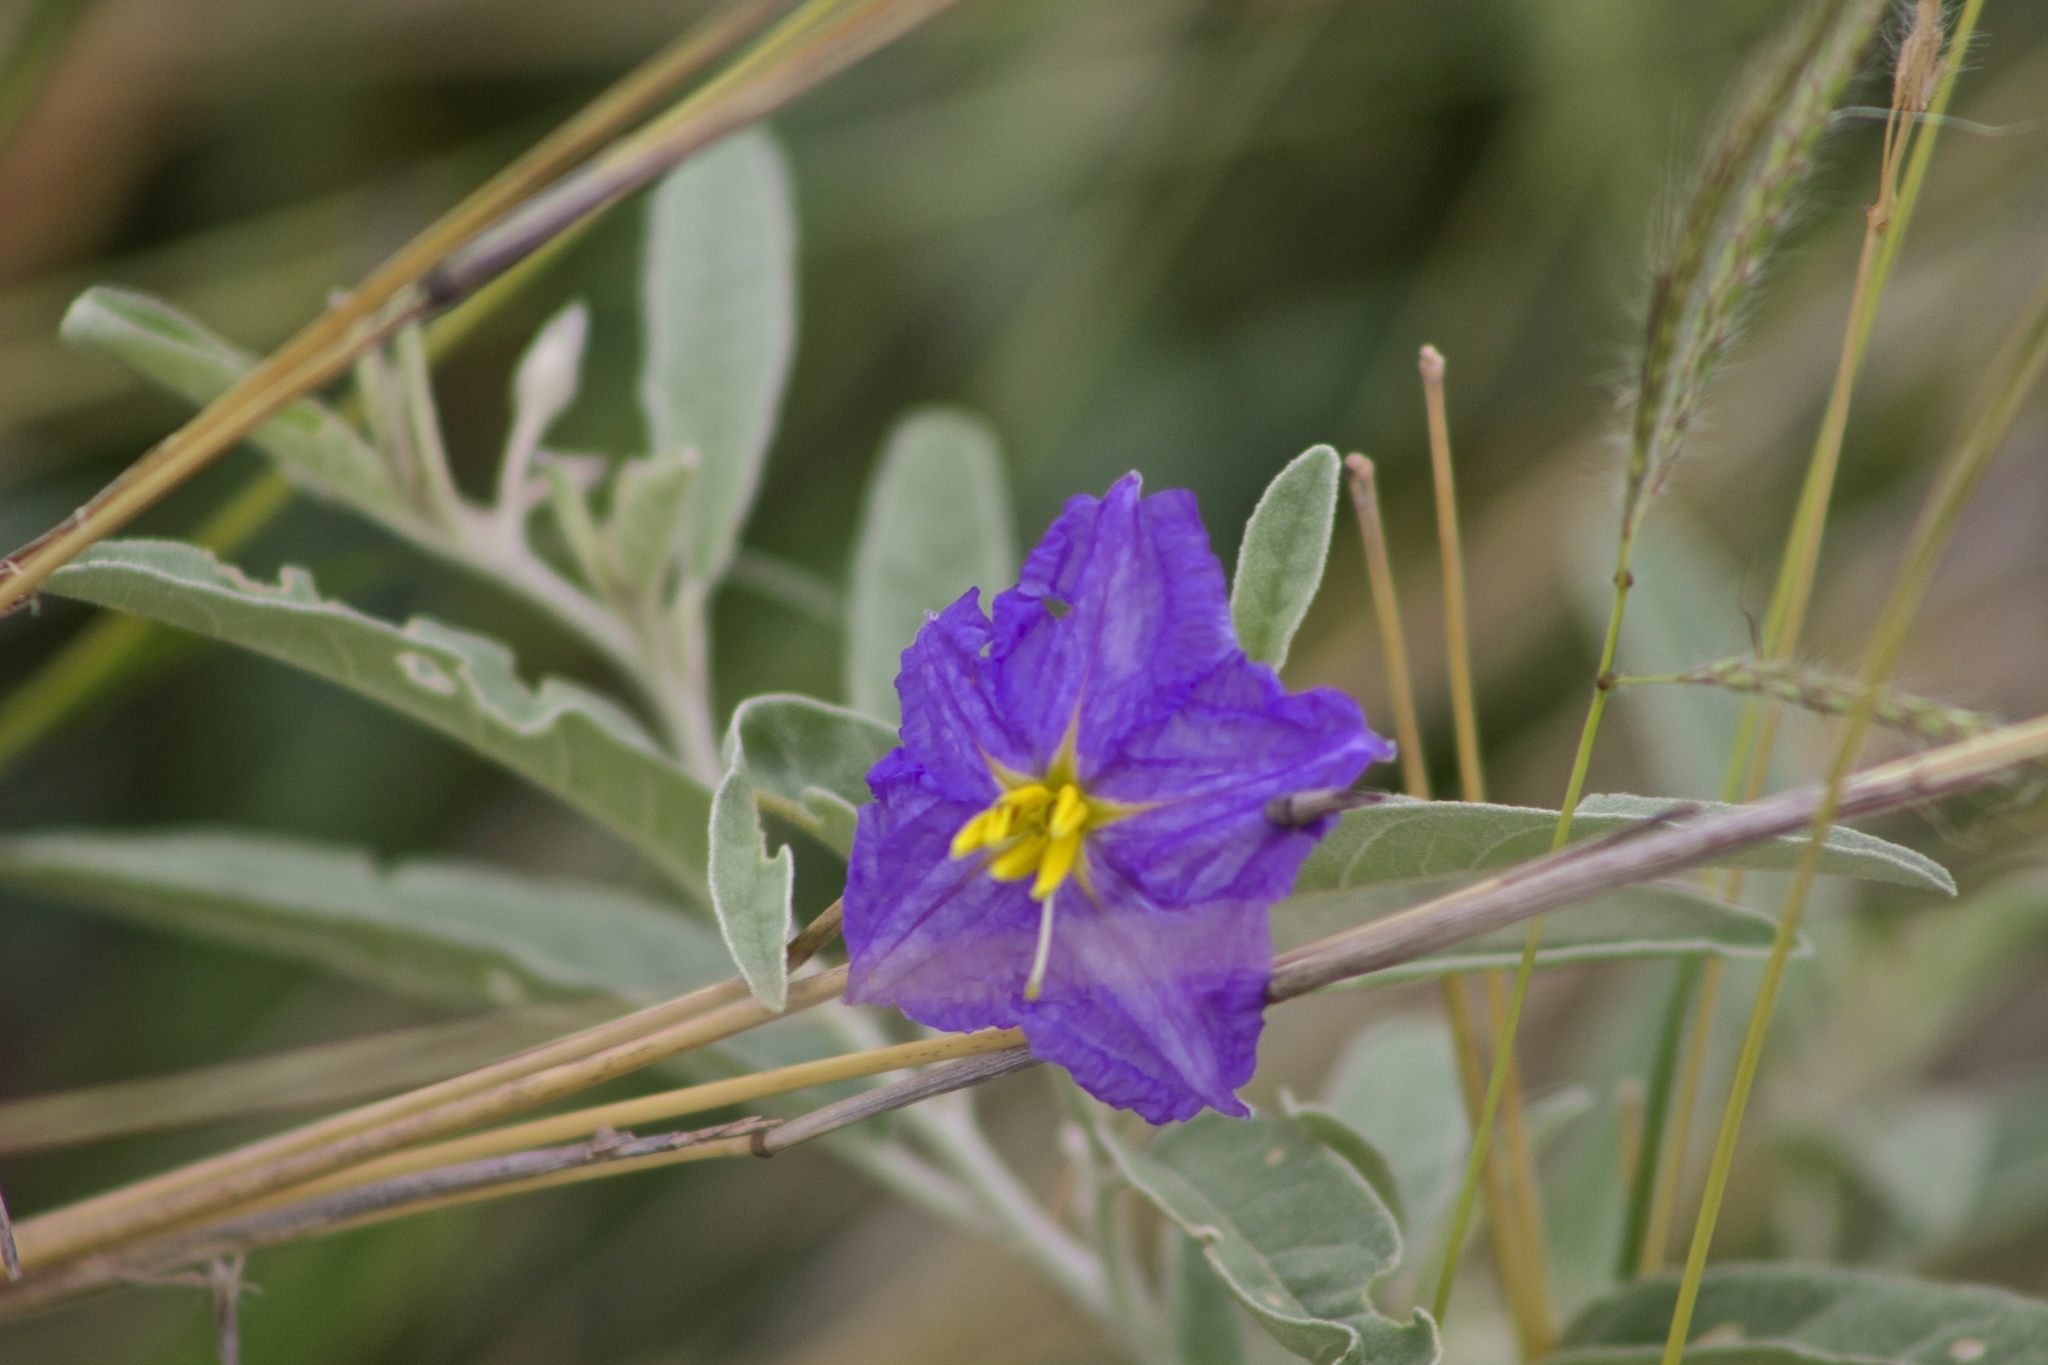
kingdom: Plantae
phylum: Tracheophyta
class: Magnoliopsida
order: Solanales
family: Solanaceae
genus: Solanum
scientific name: Solanum elaeagnifolium
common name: Silverleaf nightshade
